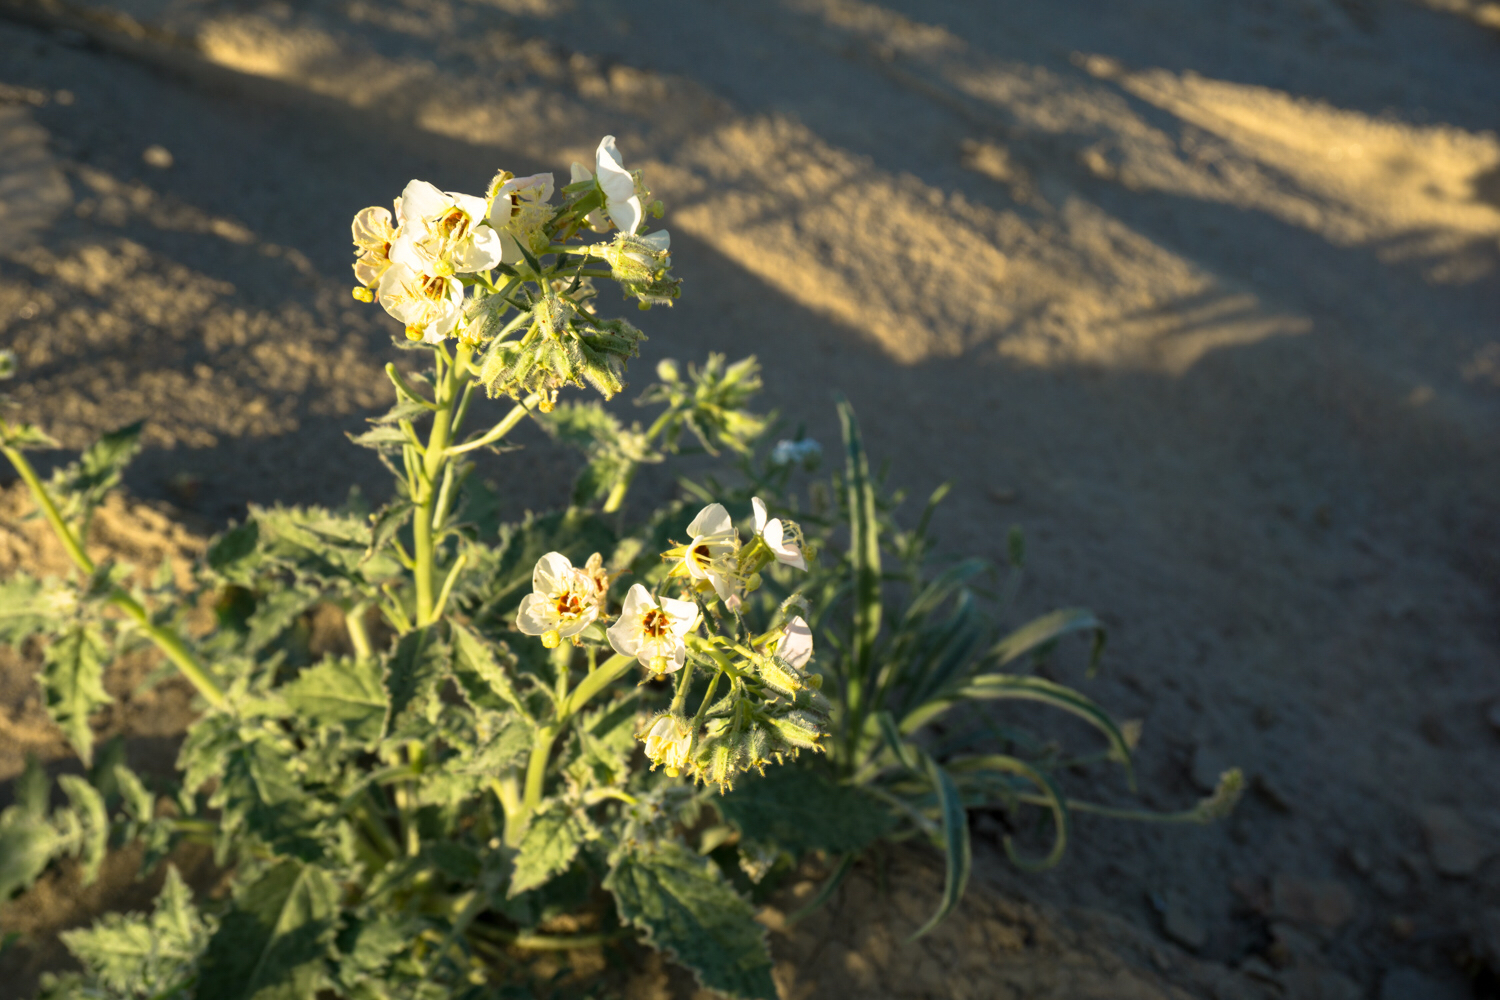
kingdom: Plantae
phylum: Tracheophyta
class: Magnoliopsida
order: Myrtales
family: Onagraceae
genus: Chylismia
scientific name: Chylismia claviformis
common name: Browneyes
